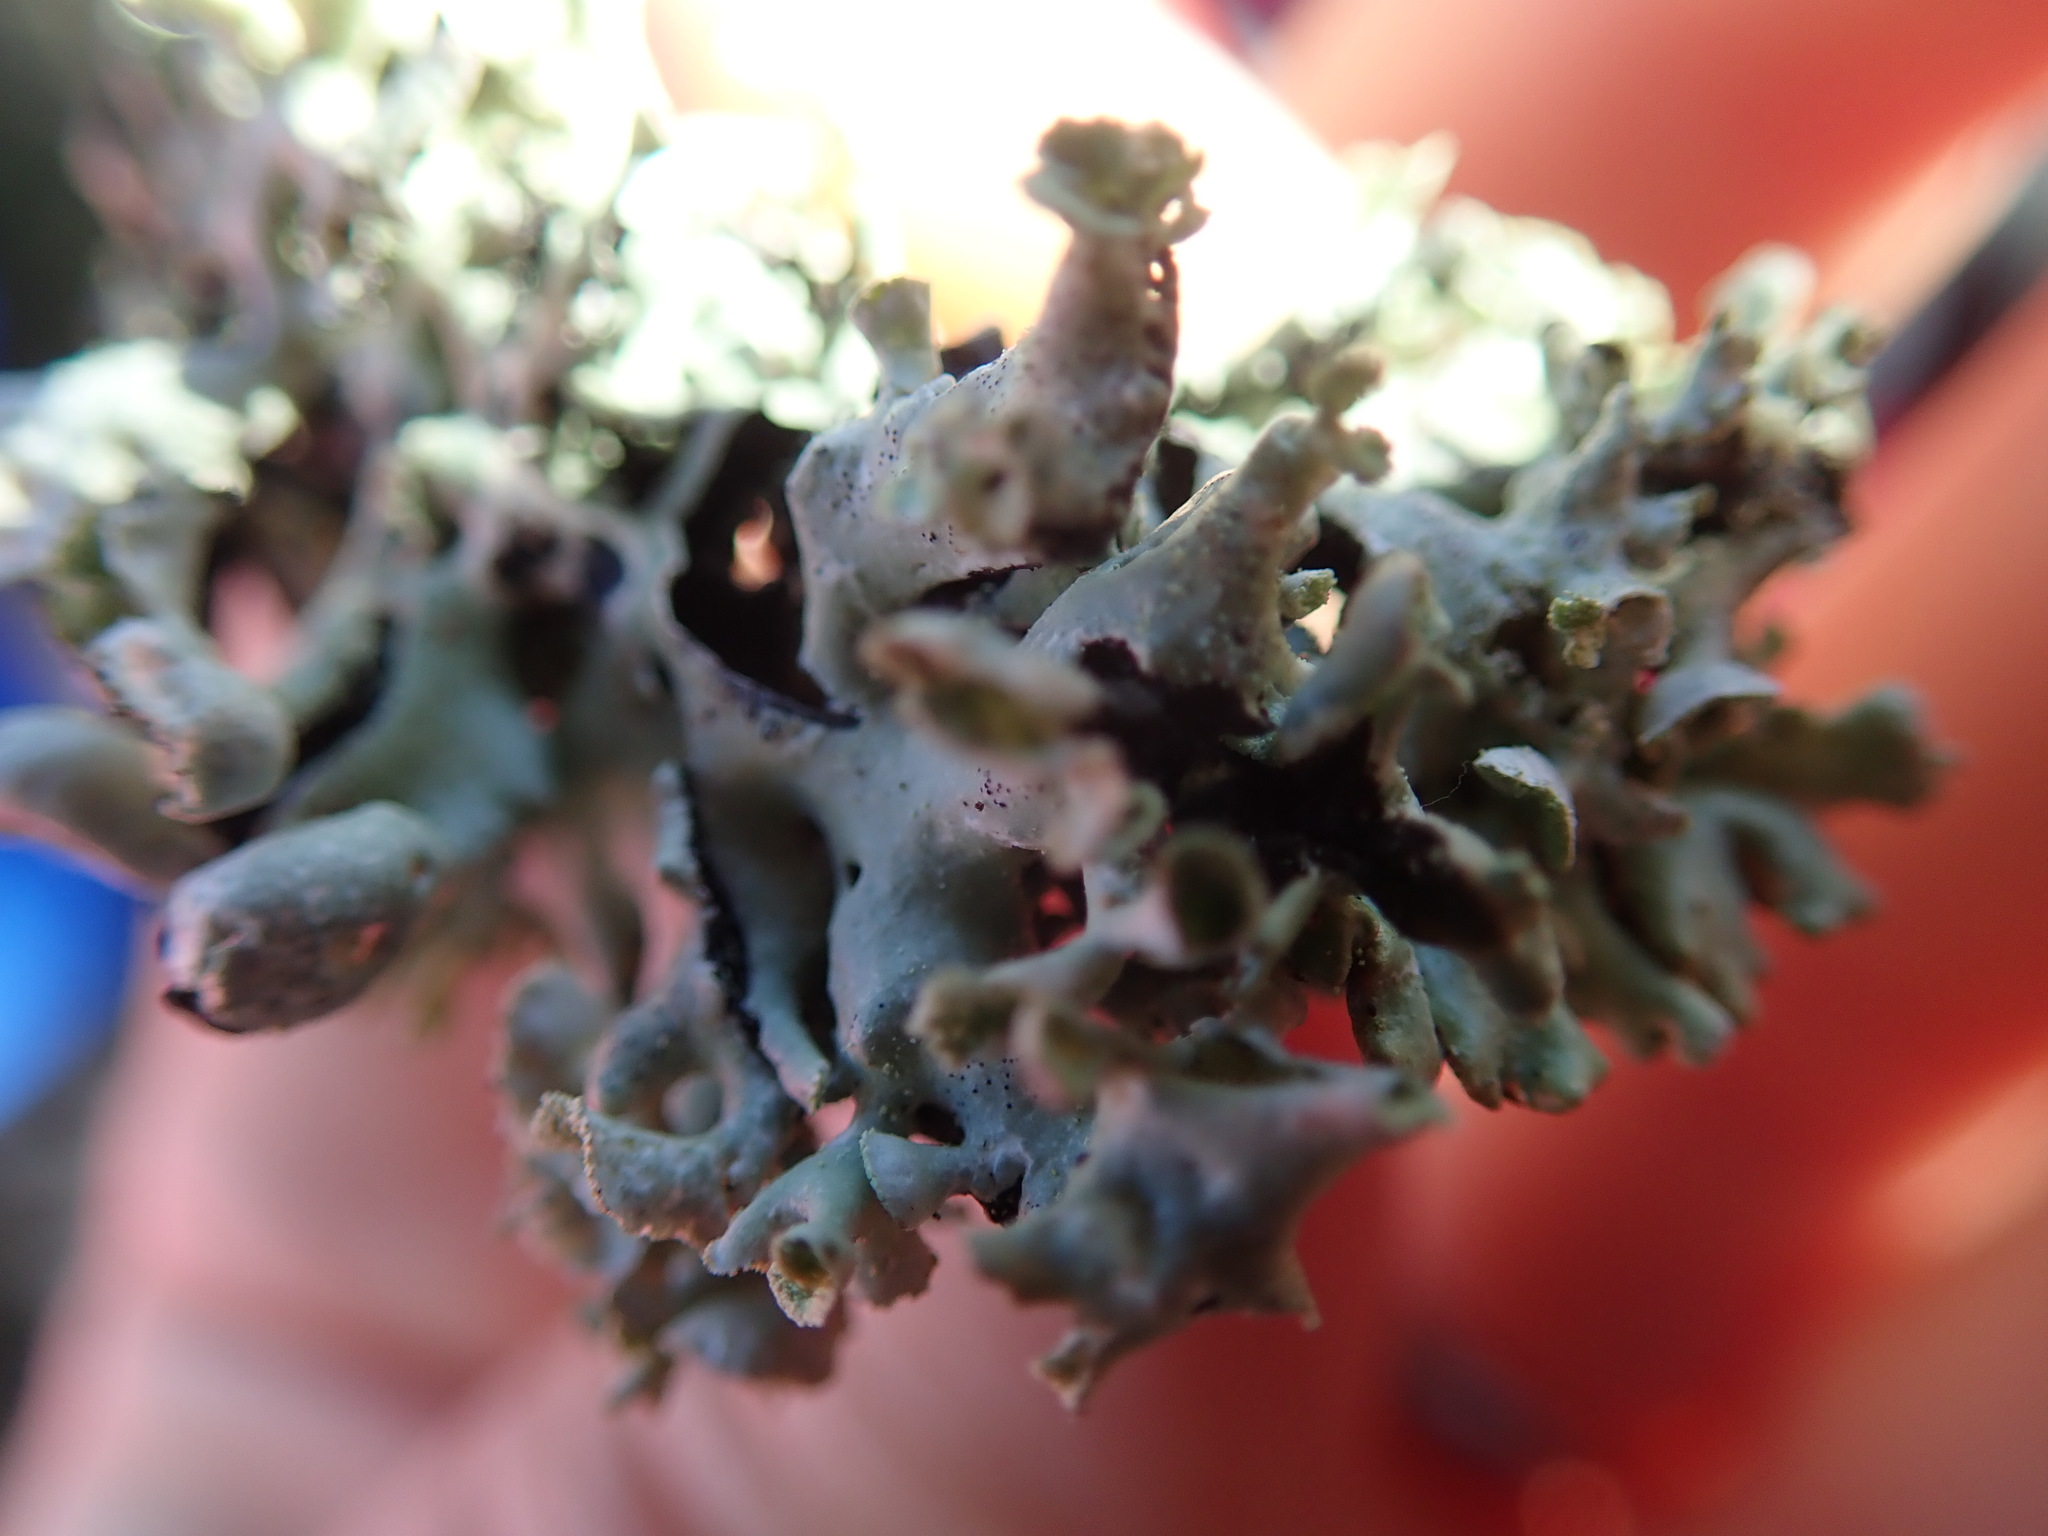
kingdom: Fungi
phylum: Ascomycota
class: Lecanoromycetes
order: Lecanorales
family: Parmeliaceae
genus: Hypogymnia
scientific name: Hypogymnia physodes
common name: Dark crottle
